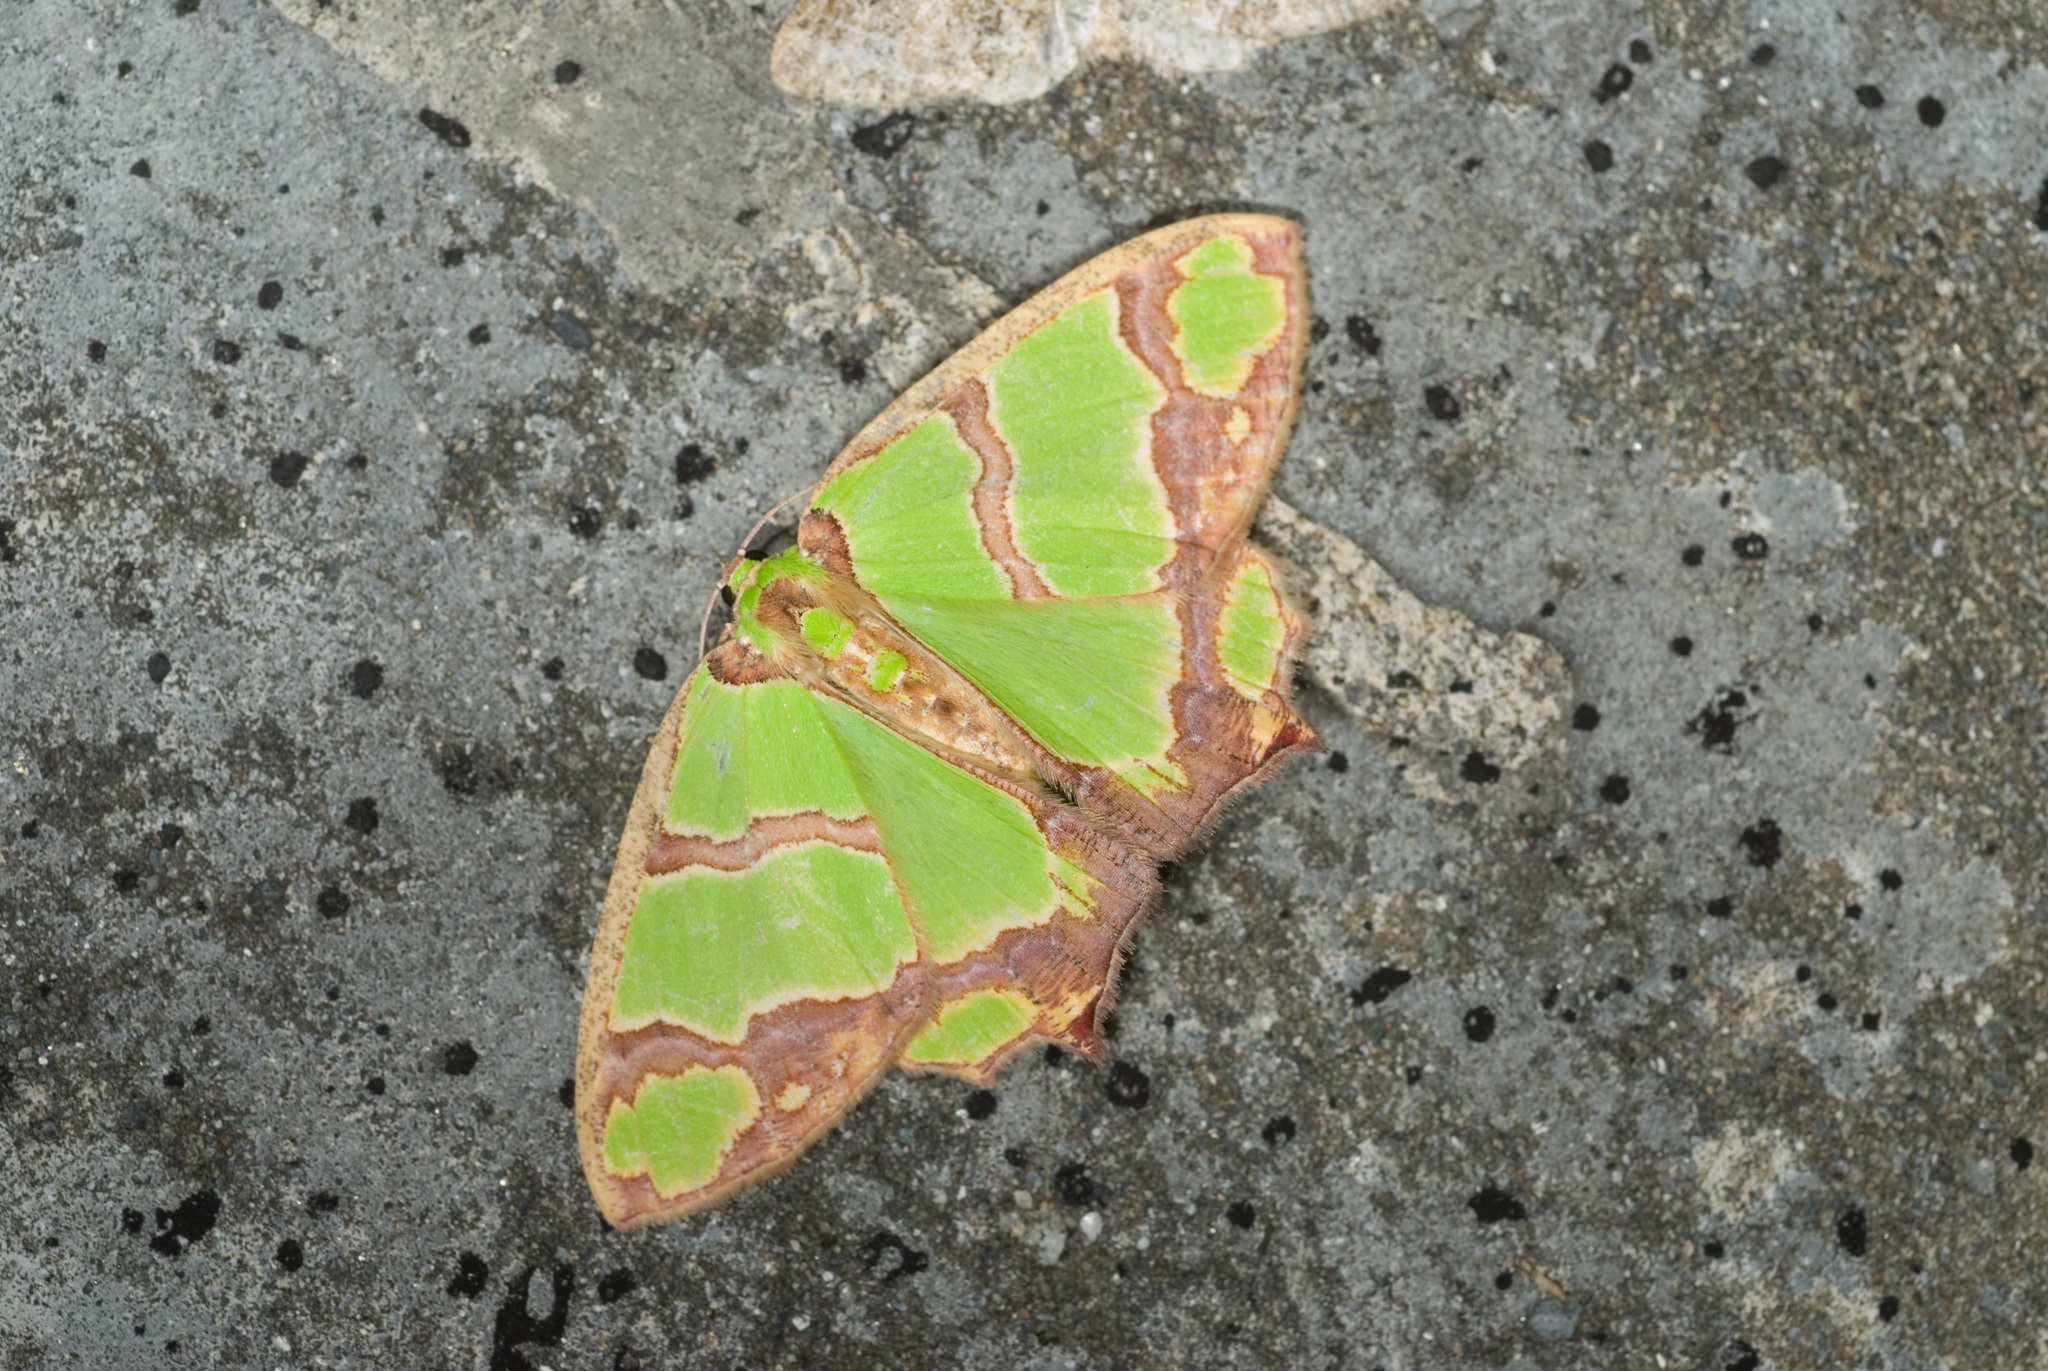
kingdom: Animalia
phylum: Arthropoda
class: Insecta
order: Lepidoptera
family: Geometridae
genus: Agathia
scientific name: Agathia visenda
